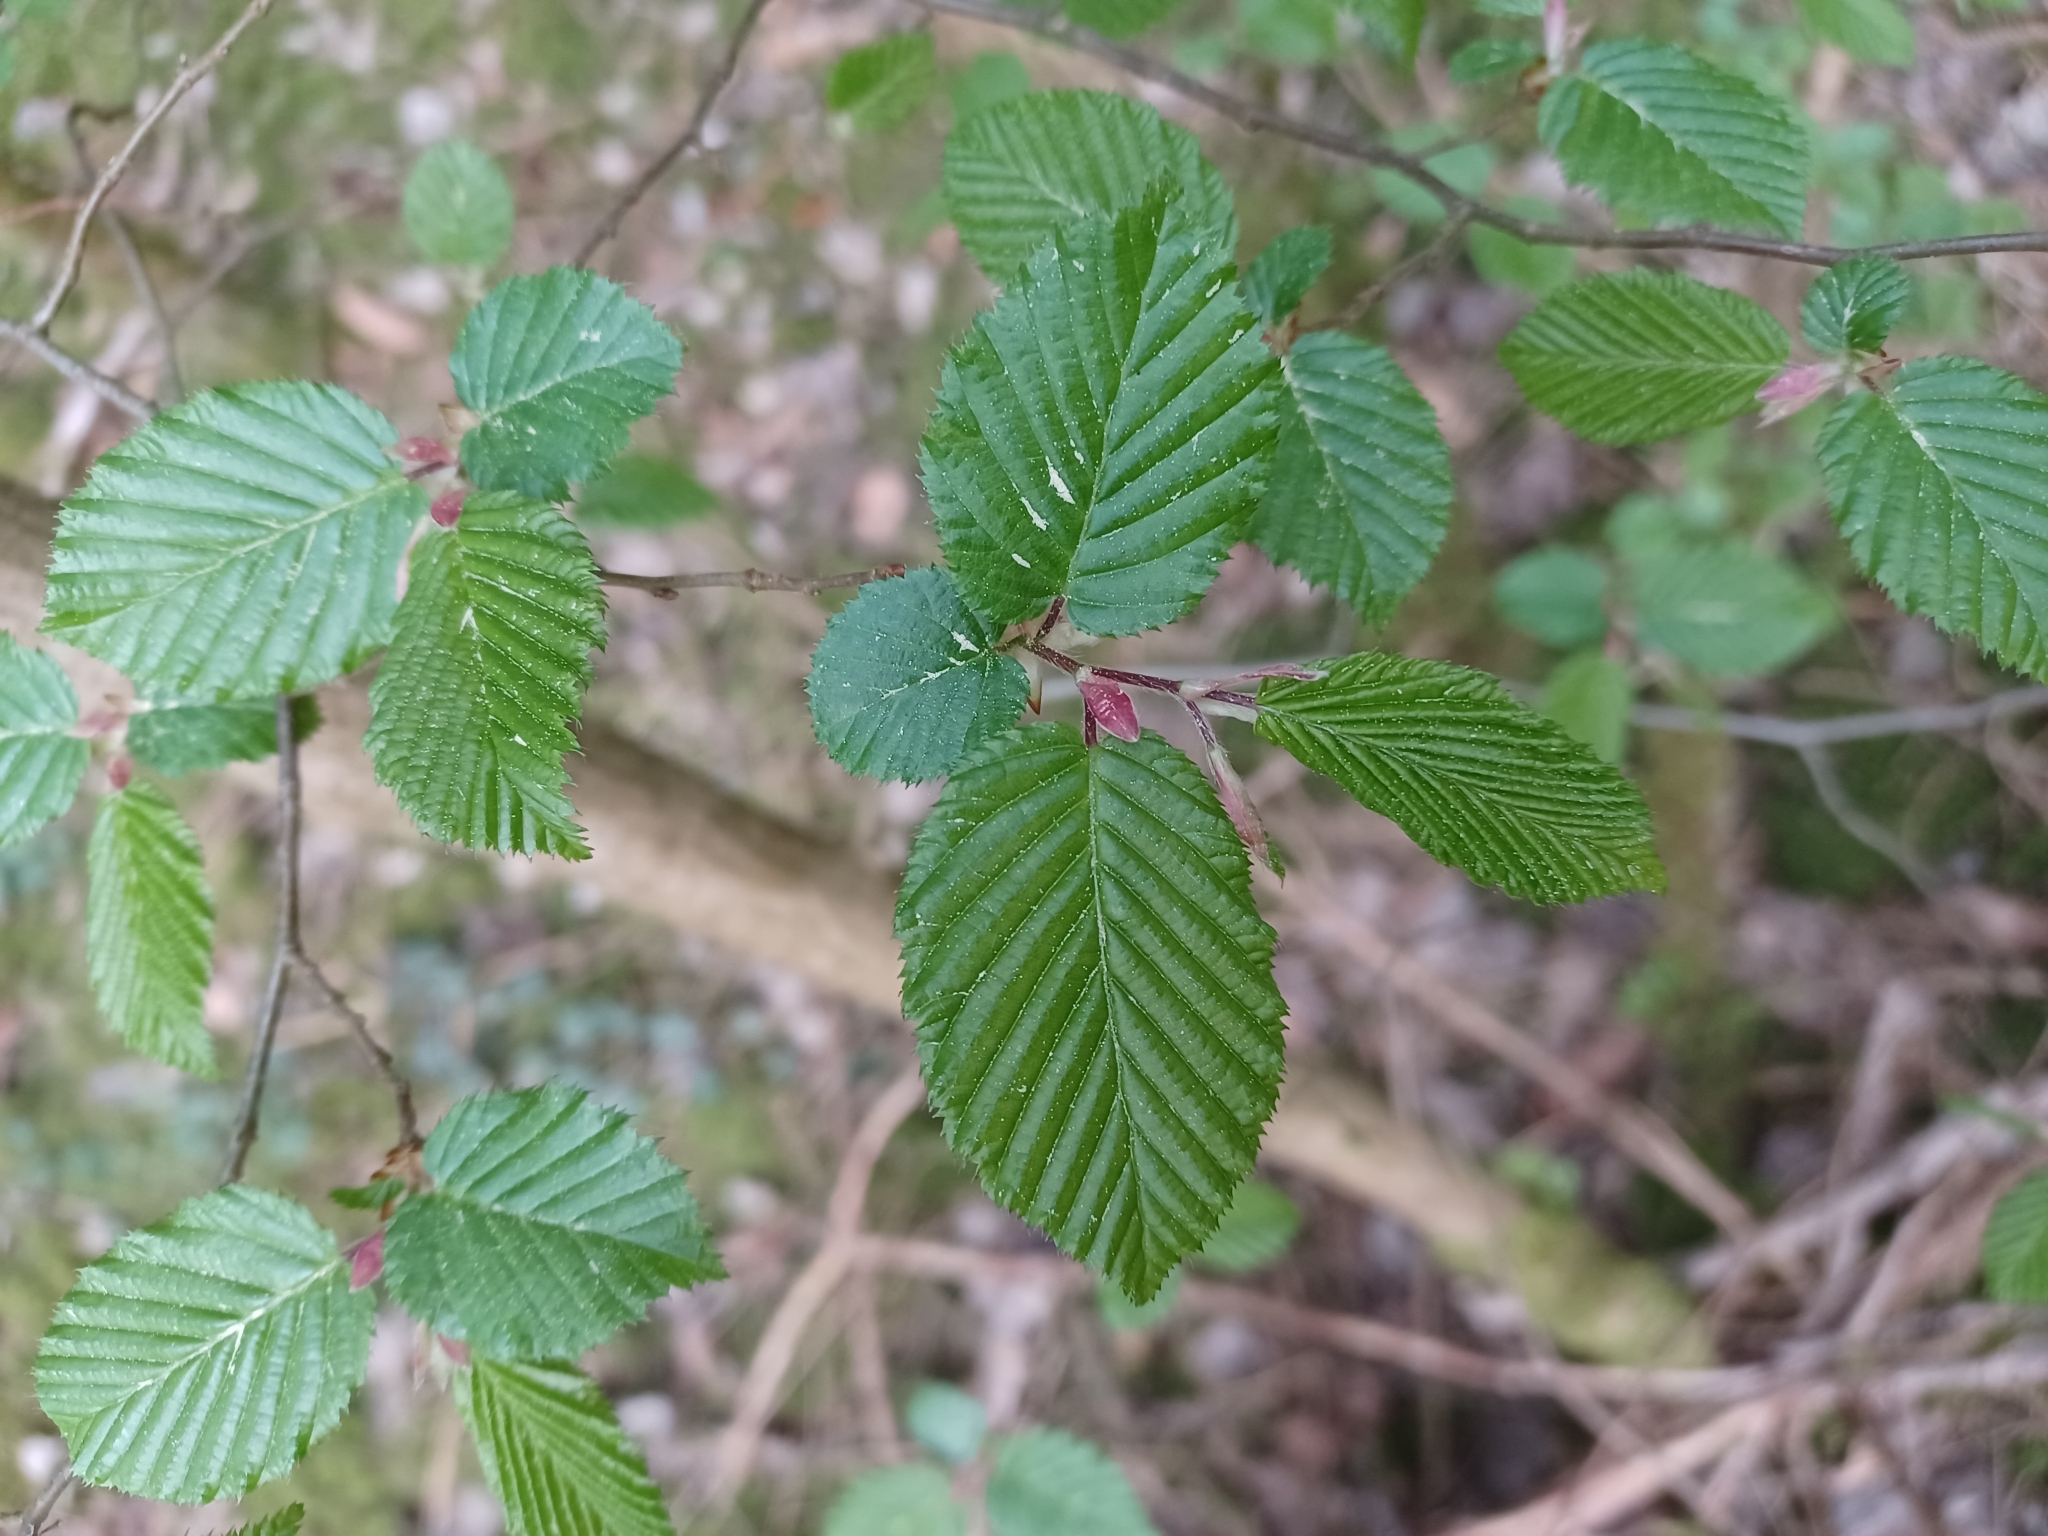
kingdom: Plantae
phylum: Tracheophyta
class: Magnoliopsida
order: Fagales
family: Betulaceae
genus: Carpinus
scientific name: Carpinus betulus
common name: Hornbeam
